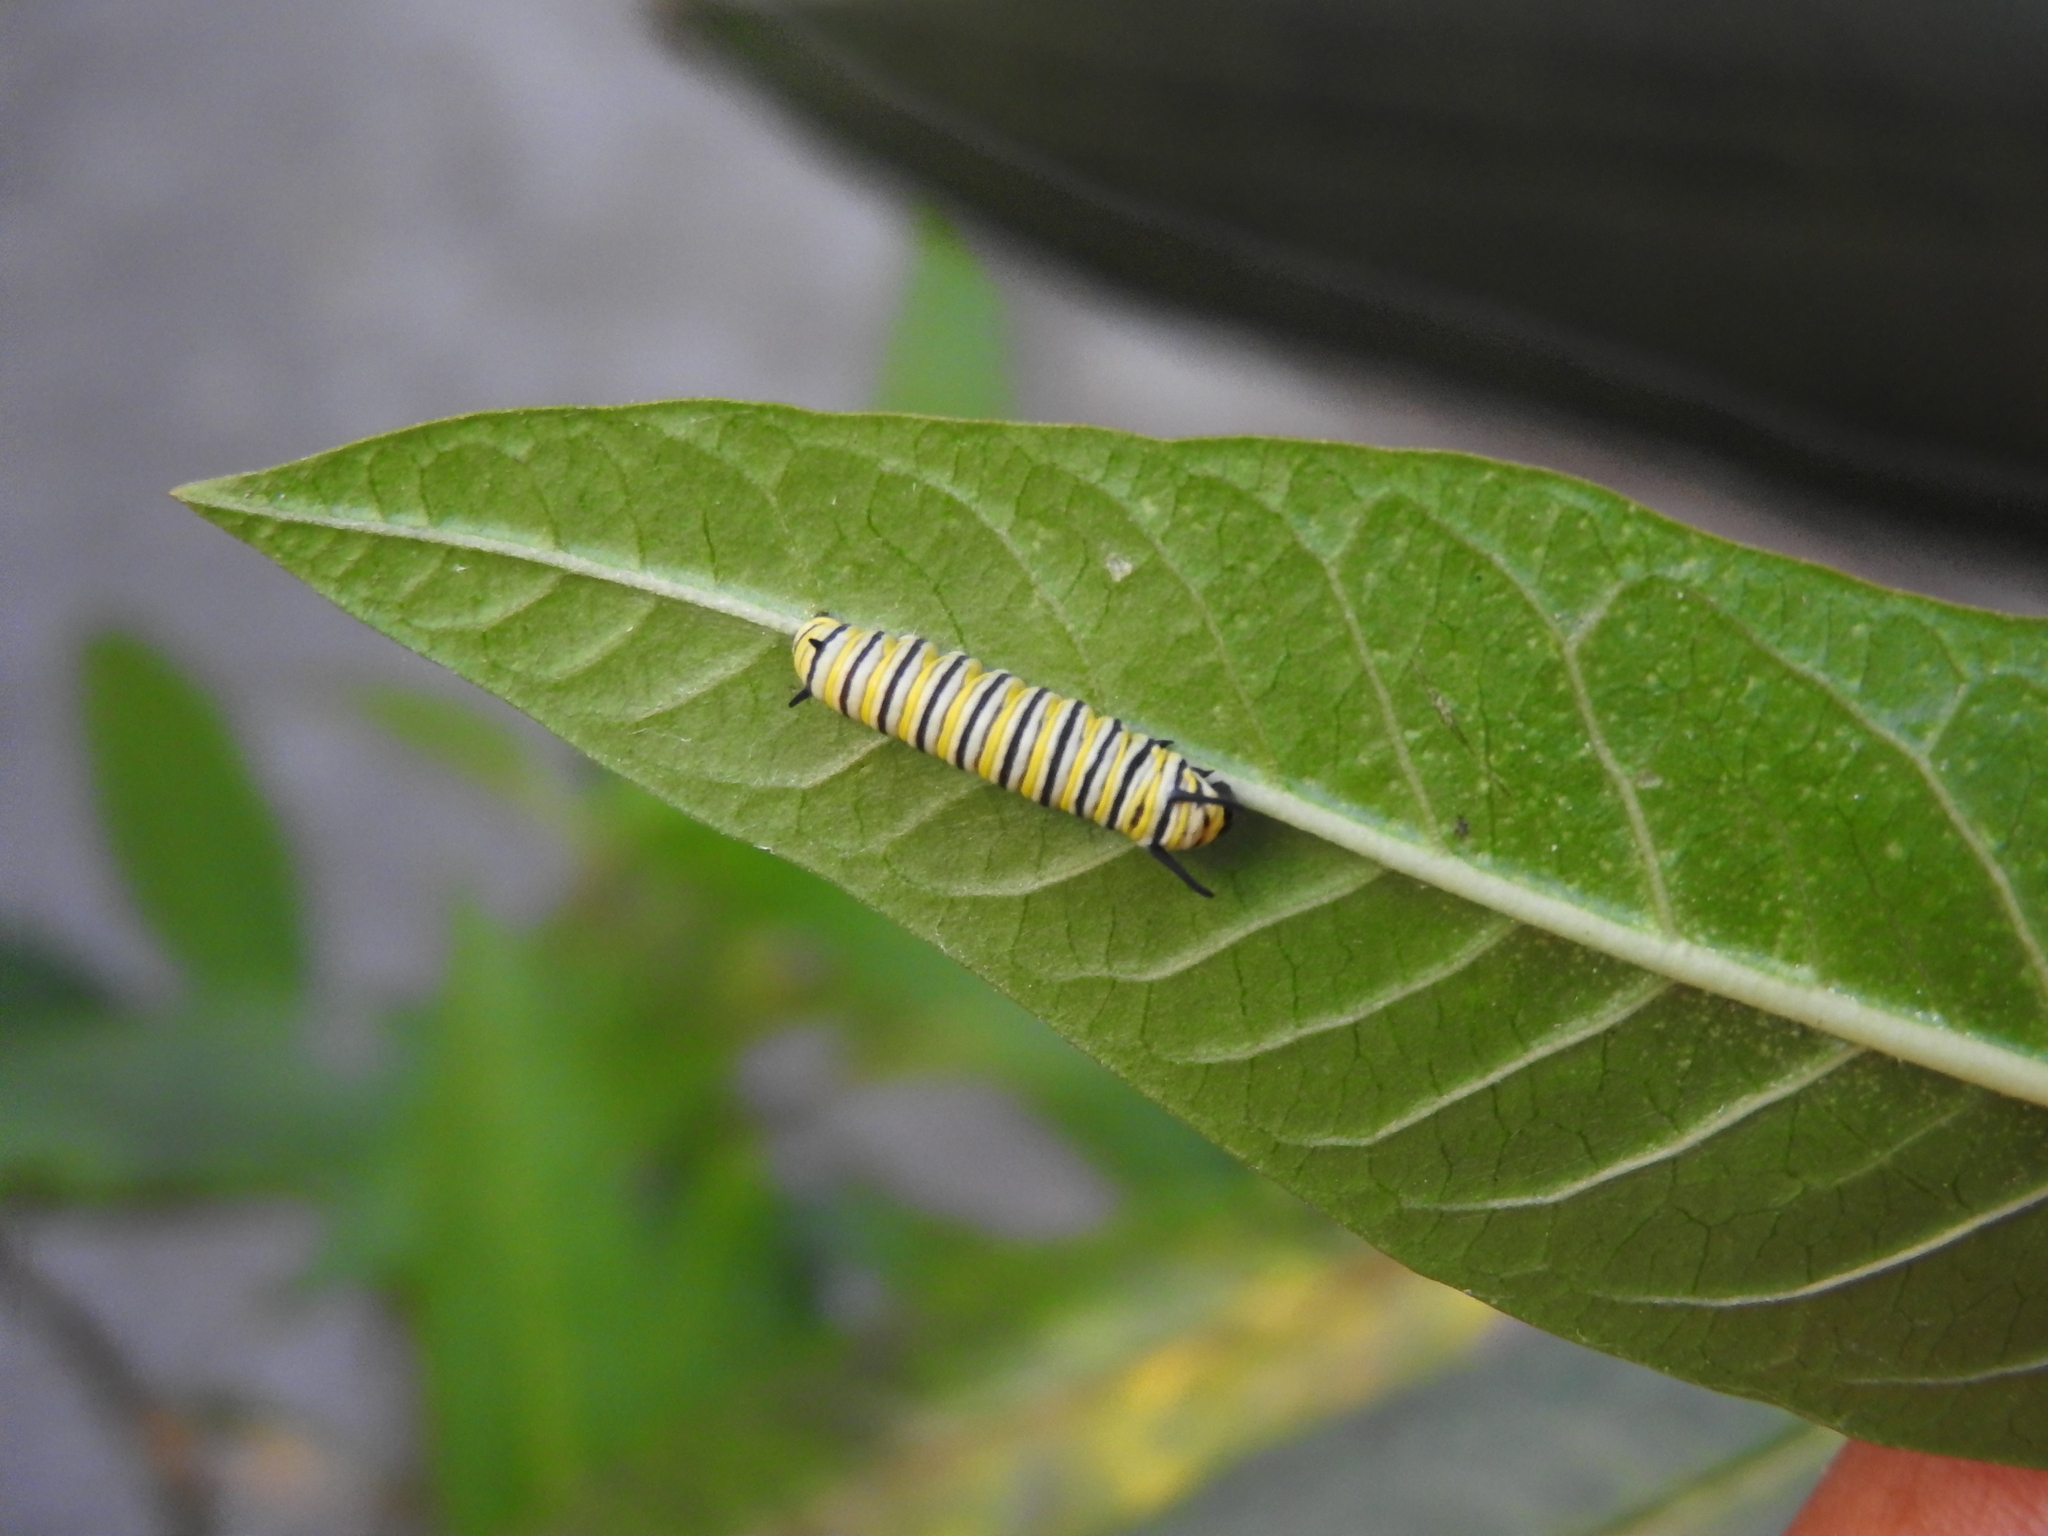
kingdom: Animalia
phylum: Arthropoda
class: Insecta
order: Lepidoptera
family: Nymphalidae
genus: Danaus
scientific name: Danaus plexippus
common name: Monarch
